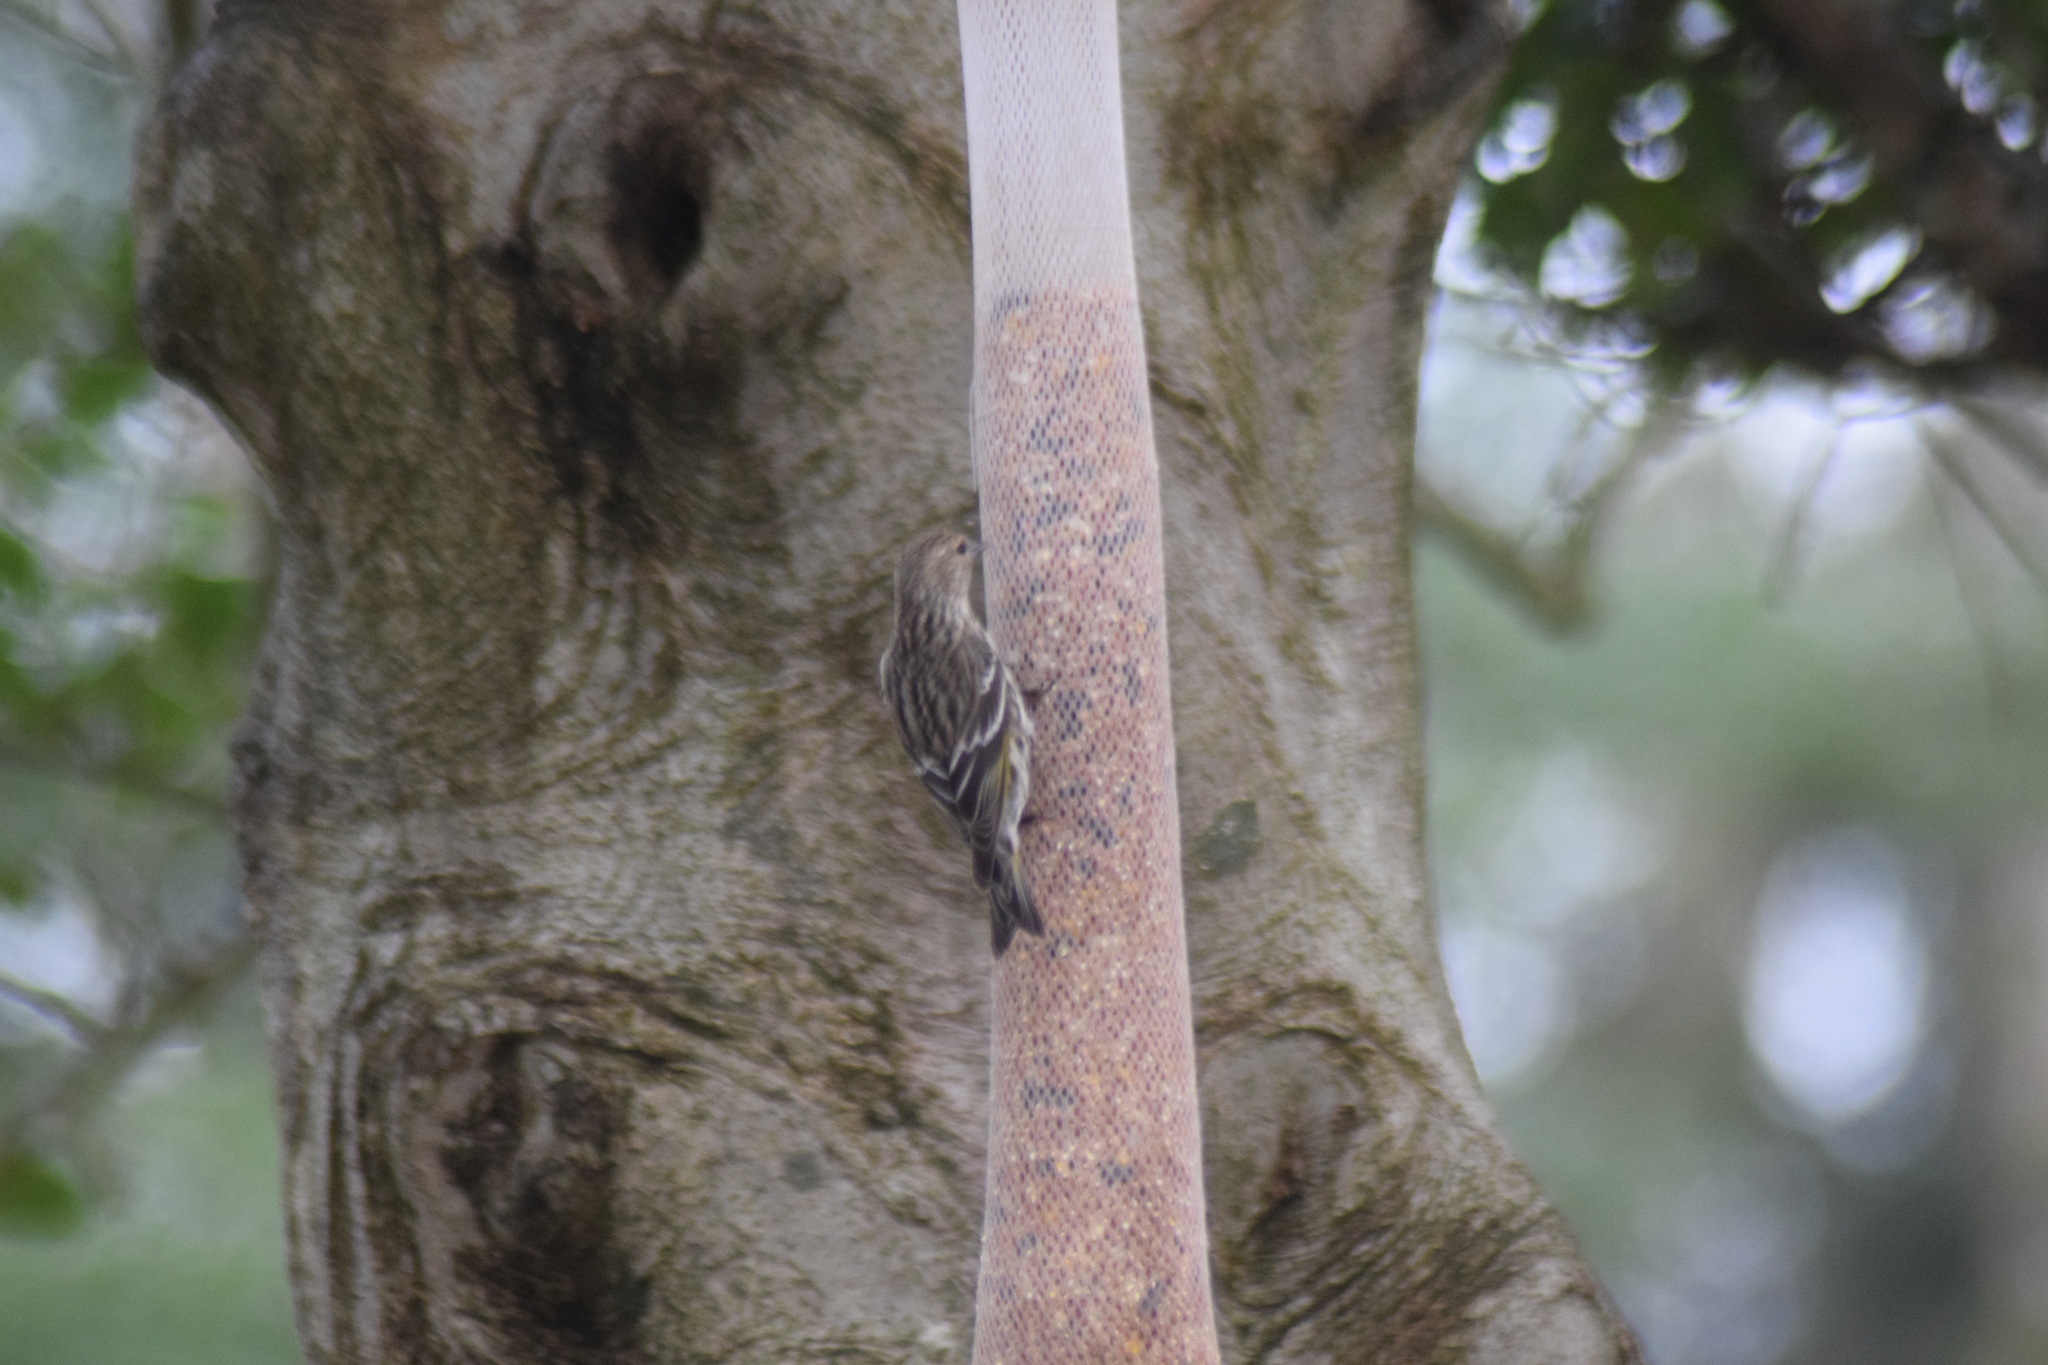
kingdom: Animalia
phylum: Chordata
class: Aves
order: Passeriformes
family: Fringillidae
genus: Spinus
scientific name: Spinus pinus
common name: Pine siskin
